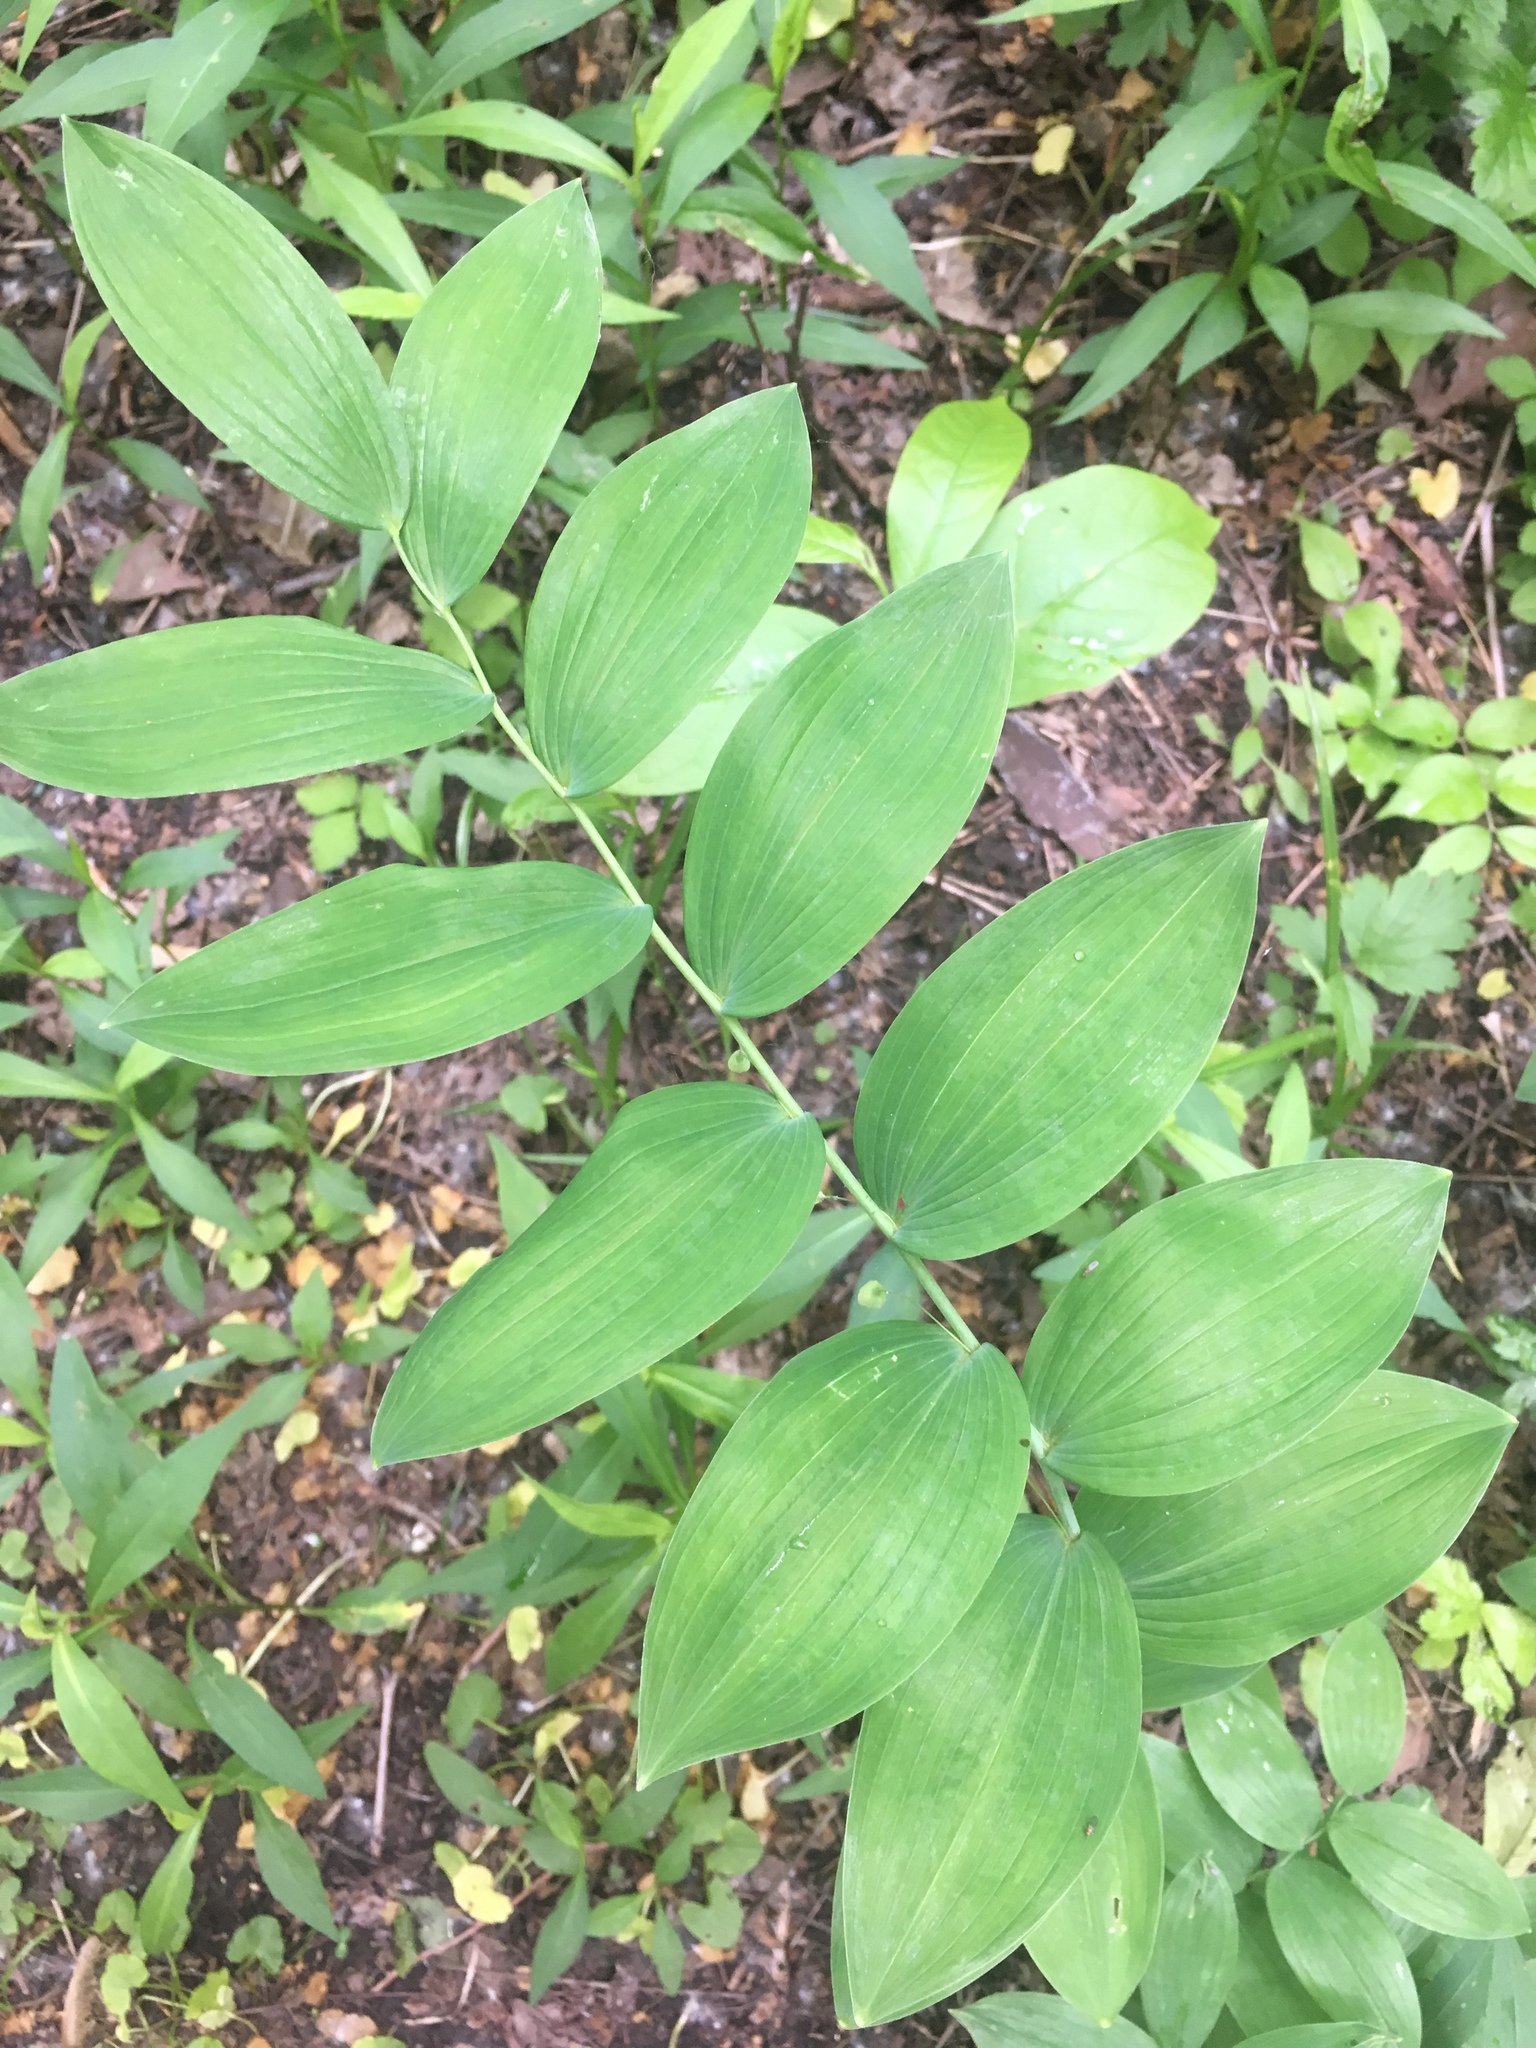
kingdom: Plantae
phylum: Tracheophyta
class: Liliopsida
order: Asparagales
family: Asparagaceae
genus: Polygonatum
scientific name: Polygonatum biflorum
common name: American solomon's-seal
